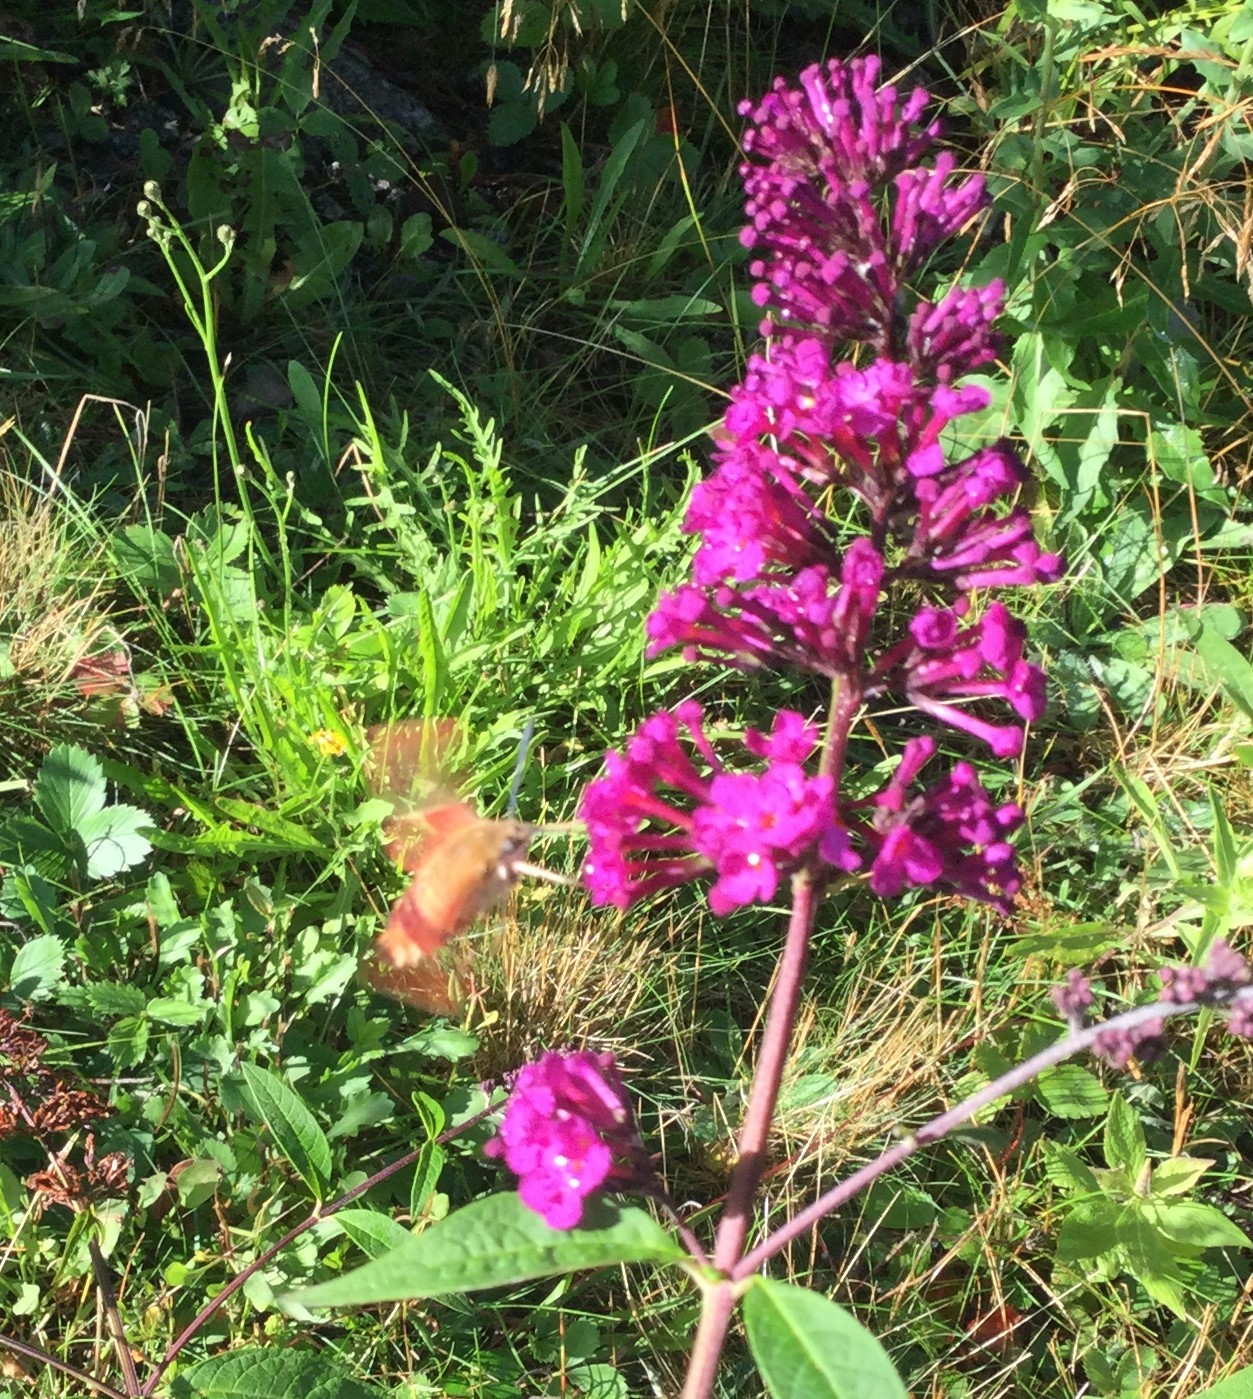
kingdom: Animalia
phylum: Arthropoda
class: Insecta
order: Lepidoptera
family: Sphingidae
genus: Hemaris
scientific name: Hemaris thysbe
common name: Common clear-wing
